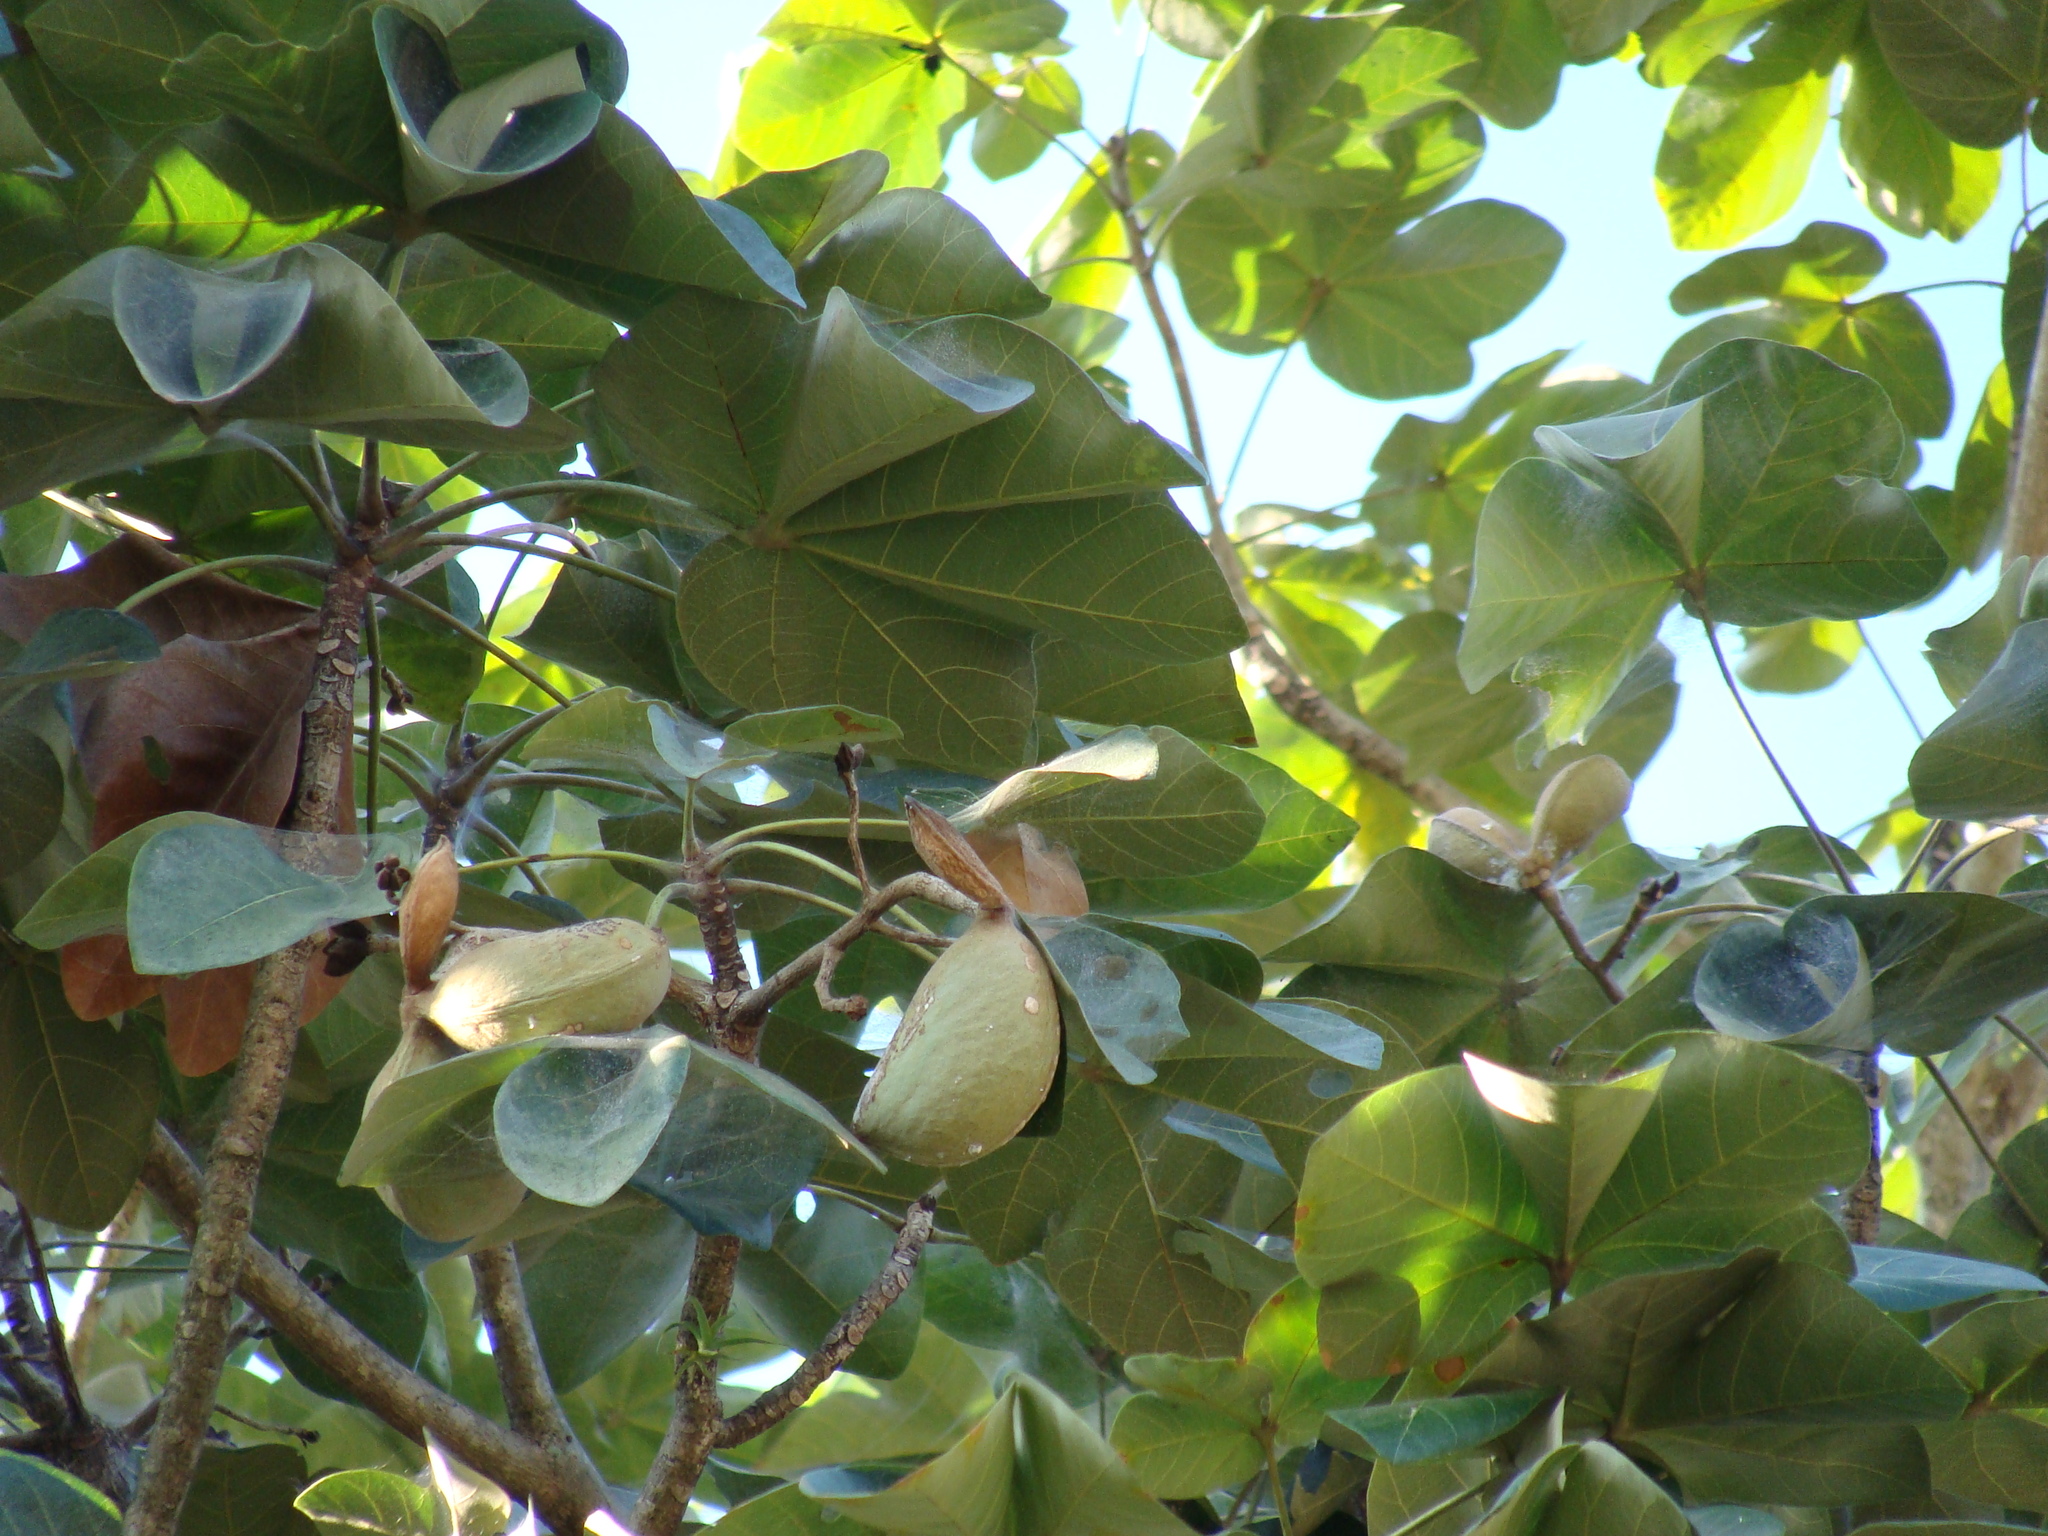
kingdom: Plantae
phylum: Tracheophyta
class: Magnoliopsida
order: Malvales
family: Malvaceae
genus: Sterculia
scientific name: Sterculia apetala
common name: Panama tree
